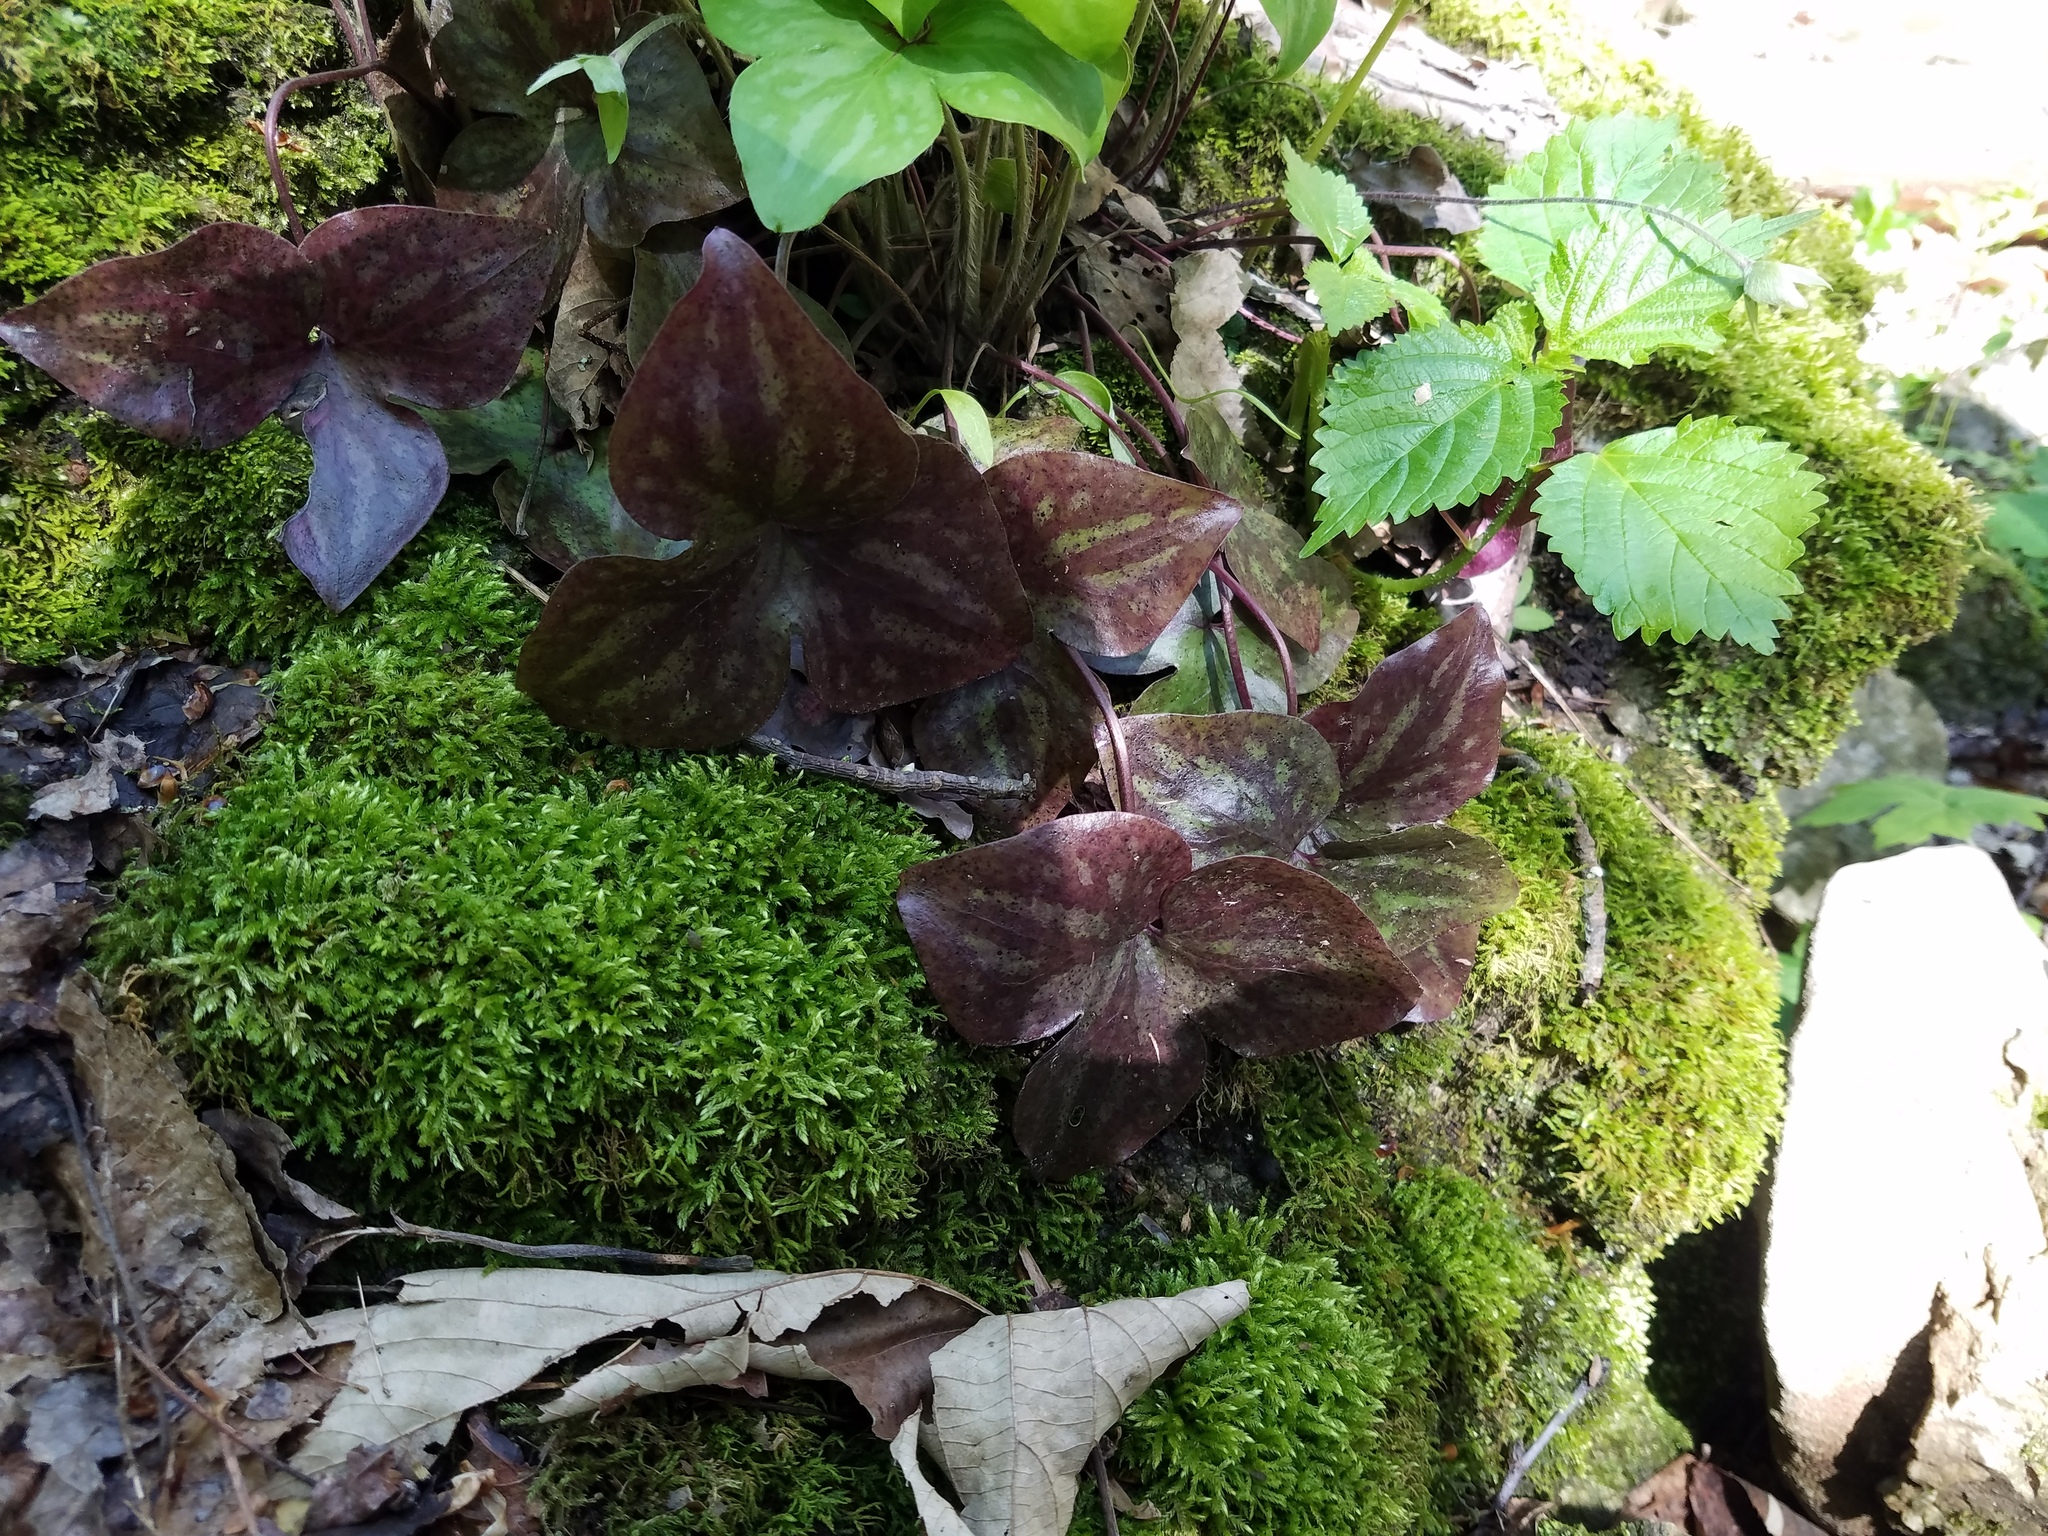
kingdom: Plantae
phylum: Tracheophyta
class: Magnoliopsida
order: Ranunculales
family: Ranunculaceae
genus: Hepatica
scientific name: Hepatica acutiloba
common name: Sharp-lobed hepatica
